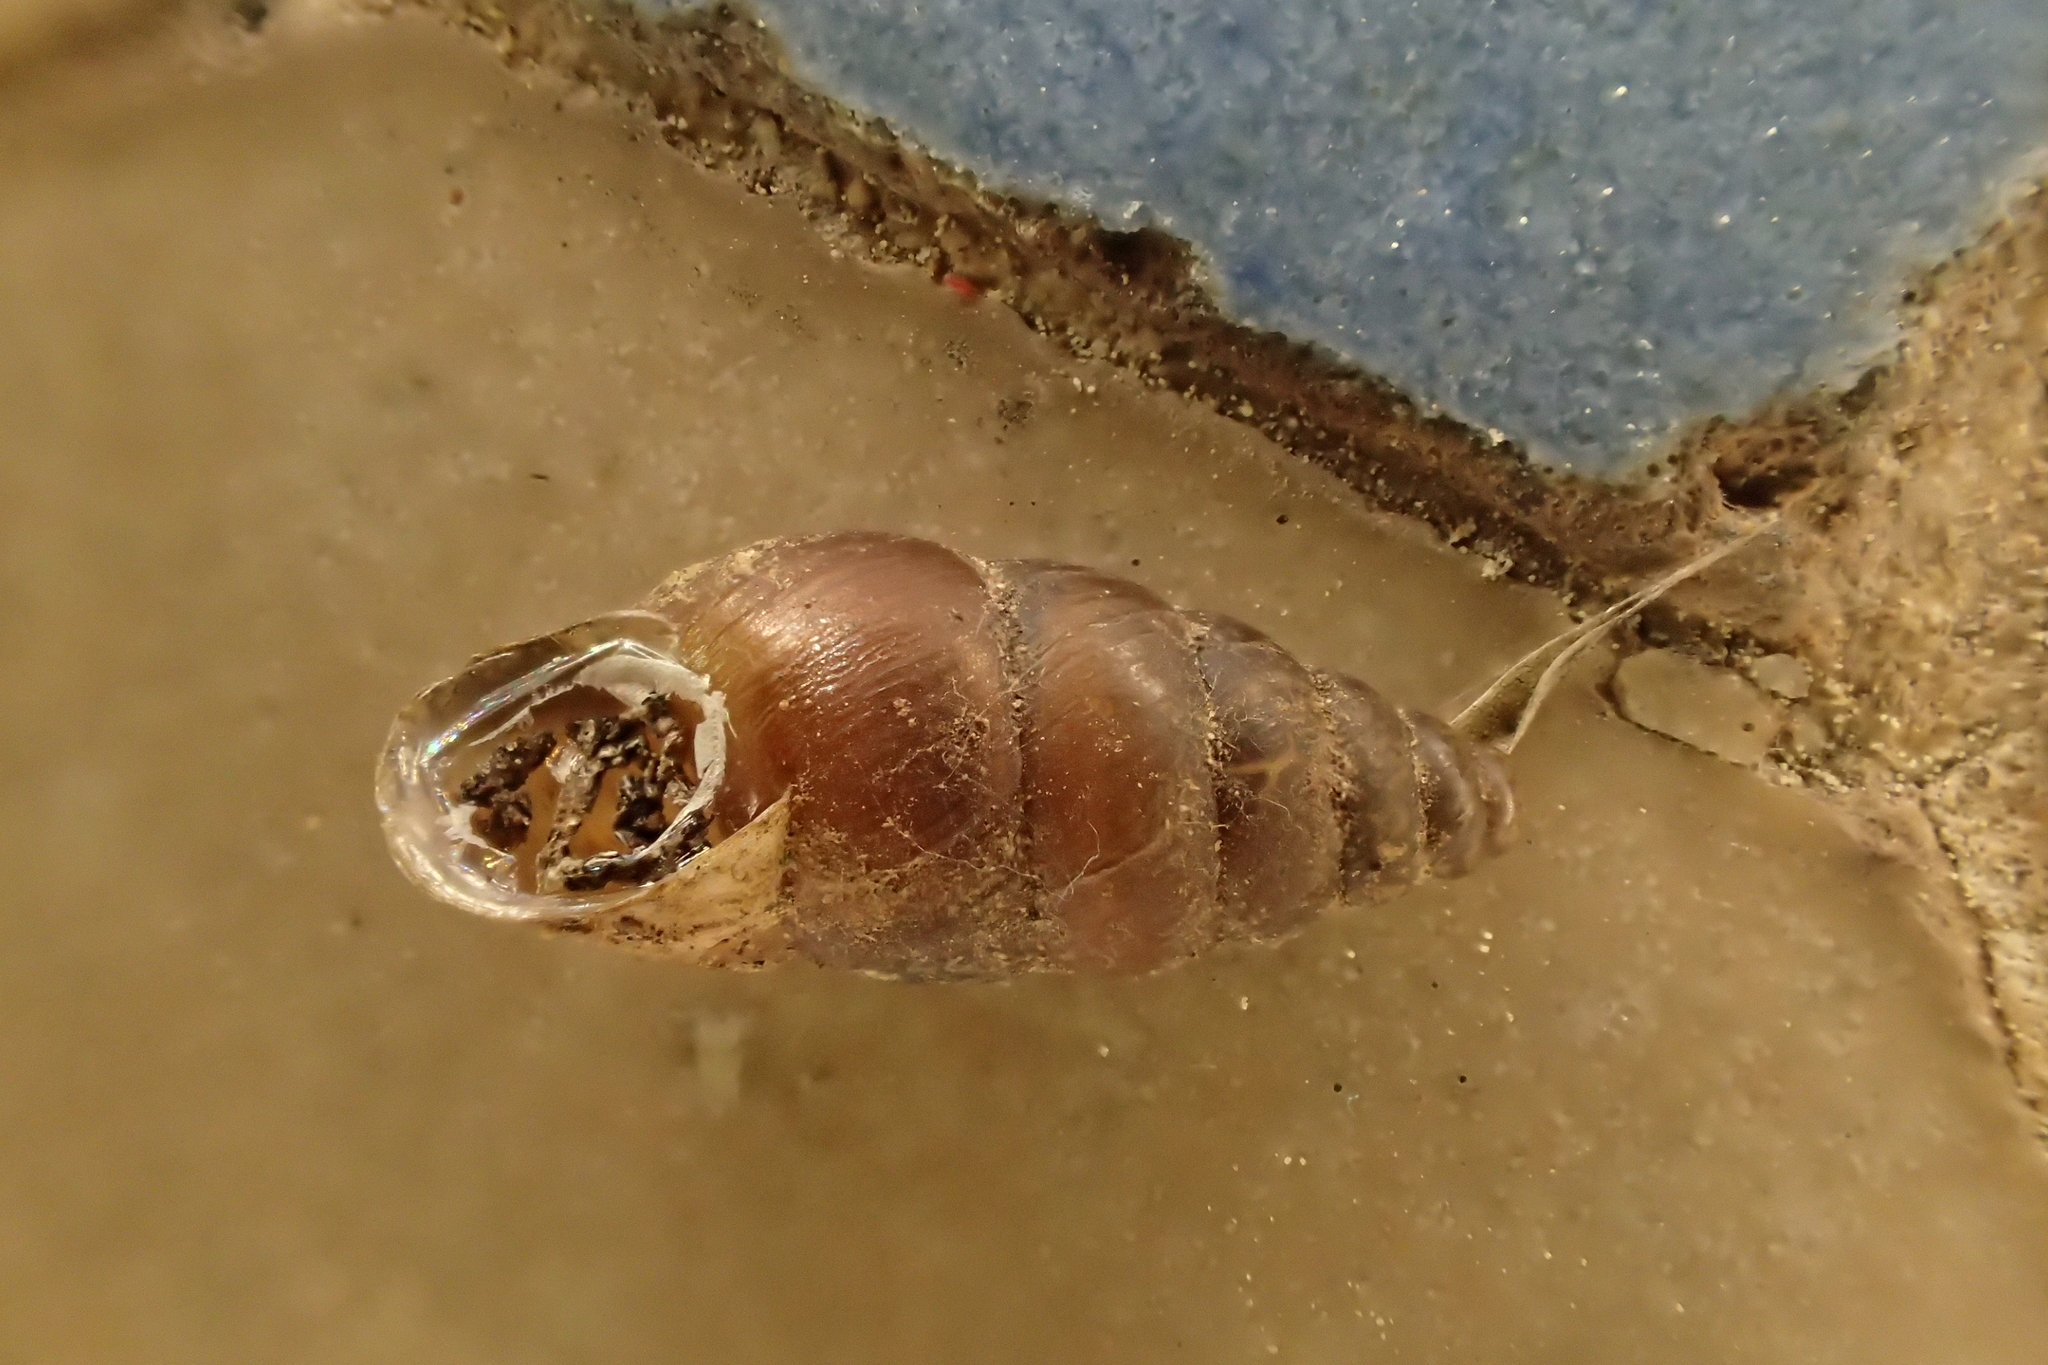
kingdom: Animalia
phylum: Mollusca
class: Gastropoda
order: Stylommatophora
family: Enidae
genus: Merdigera
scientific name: Merdigera obscura
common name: Lesser bulin
